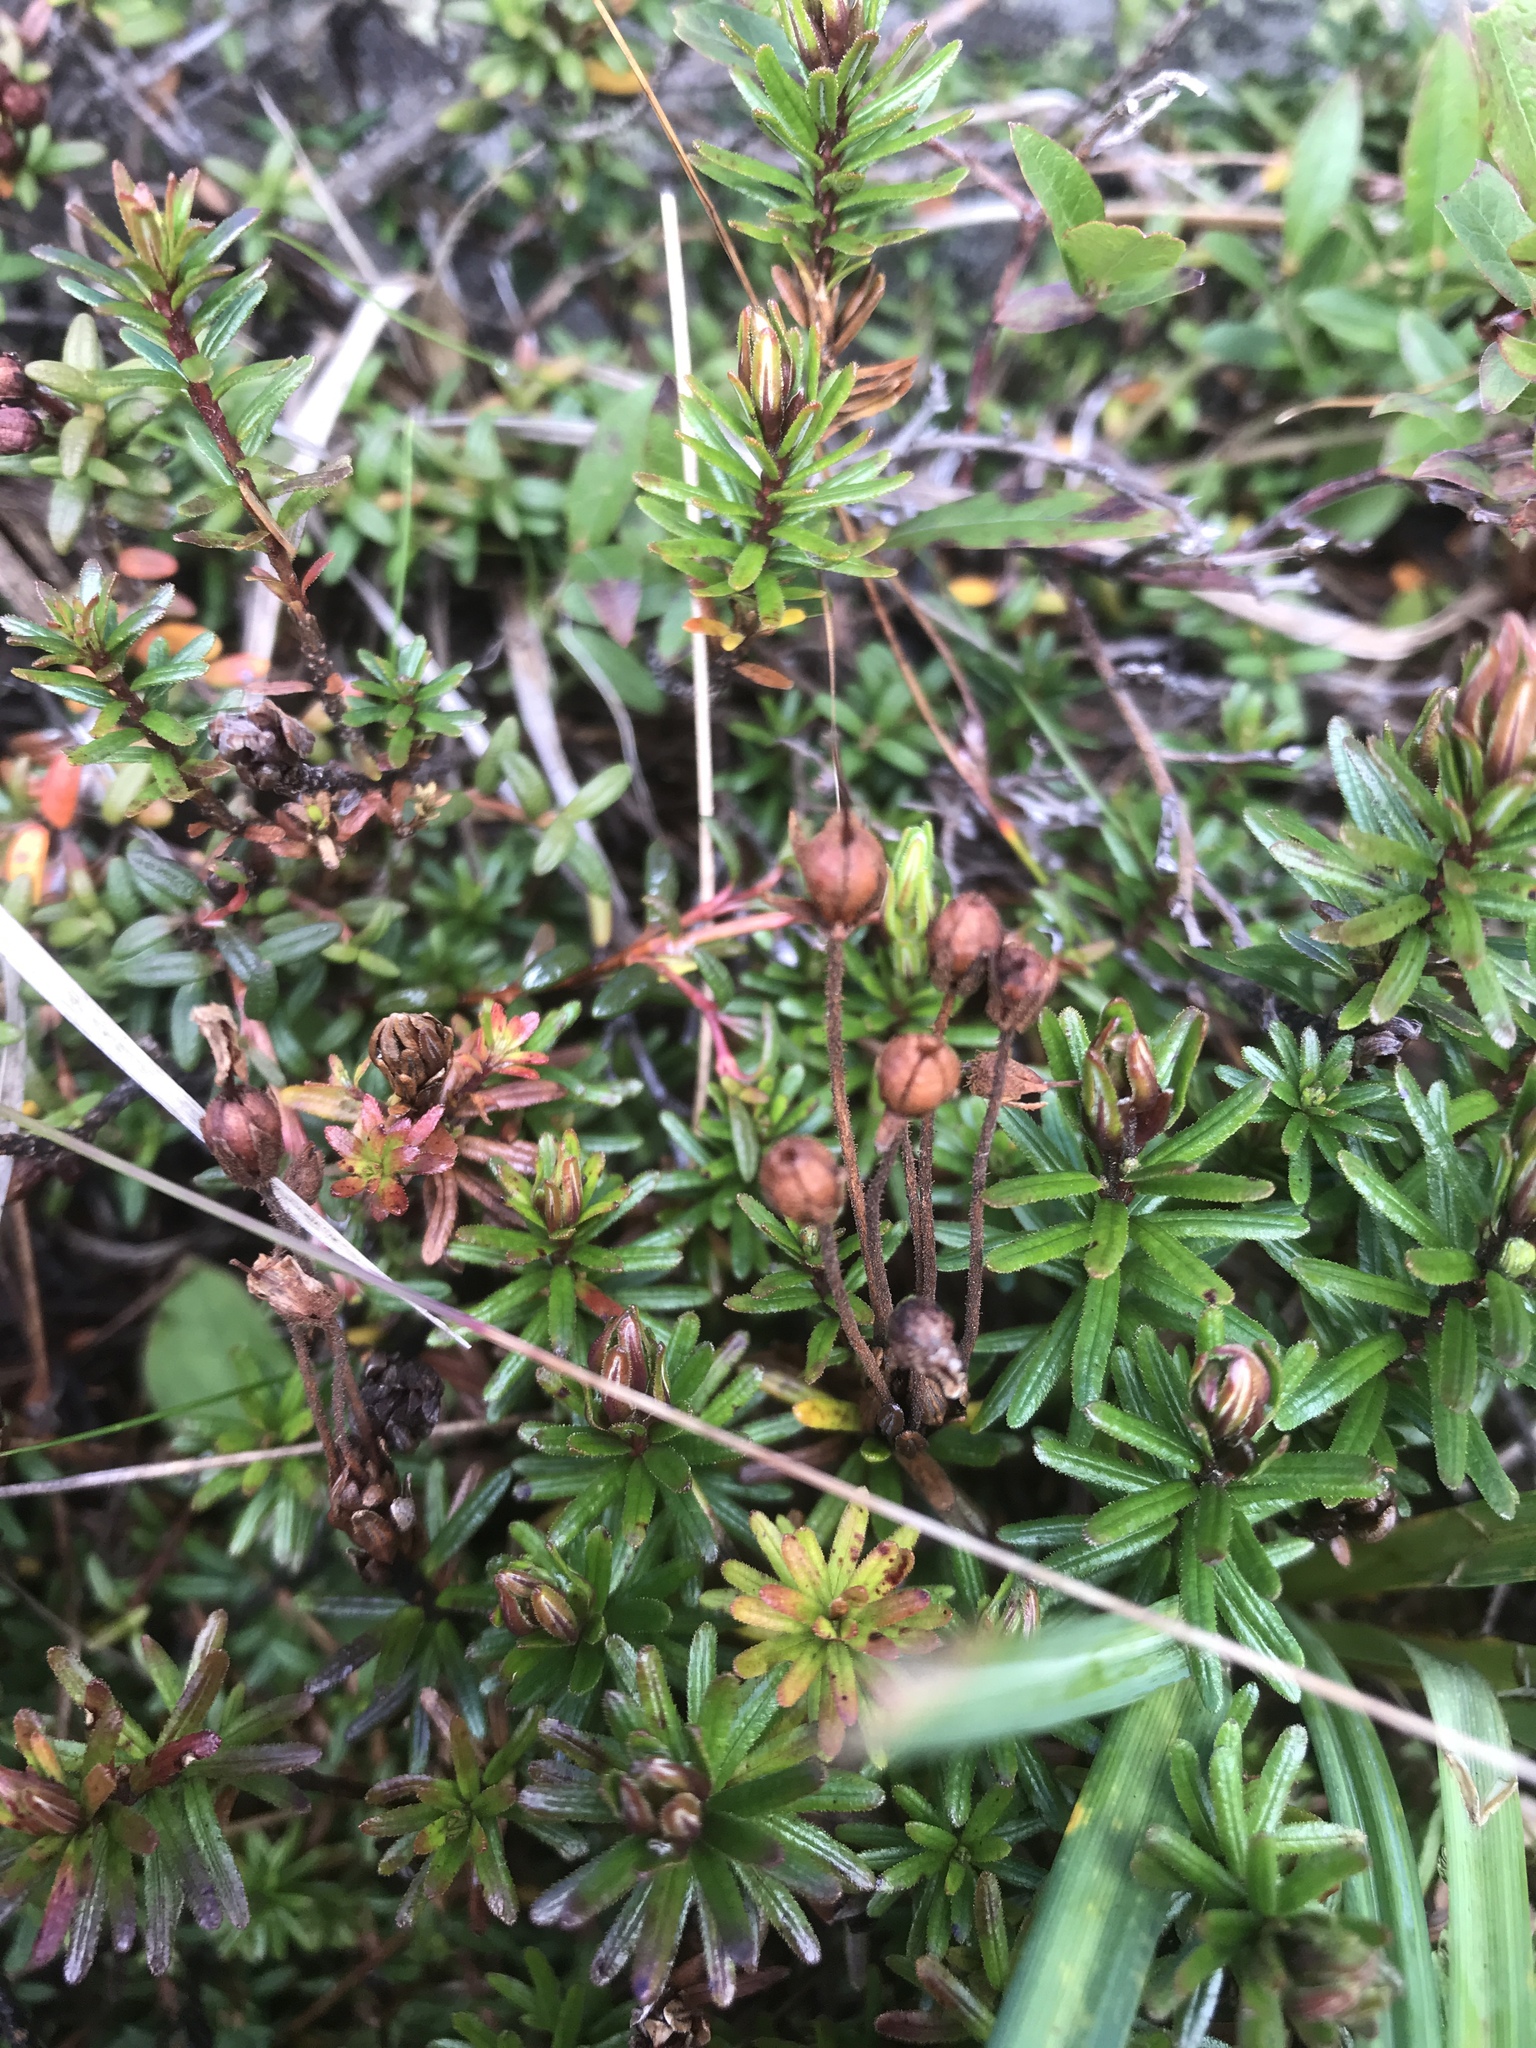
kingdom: Plantae
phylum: Tracheophyta
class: Magnoliopsida
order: Ericales
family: Ericaceae
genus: Phyllodoce
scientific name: Phyllodoce caerulea
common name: Blue heath
